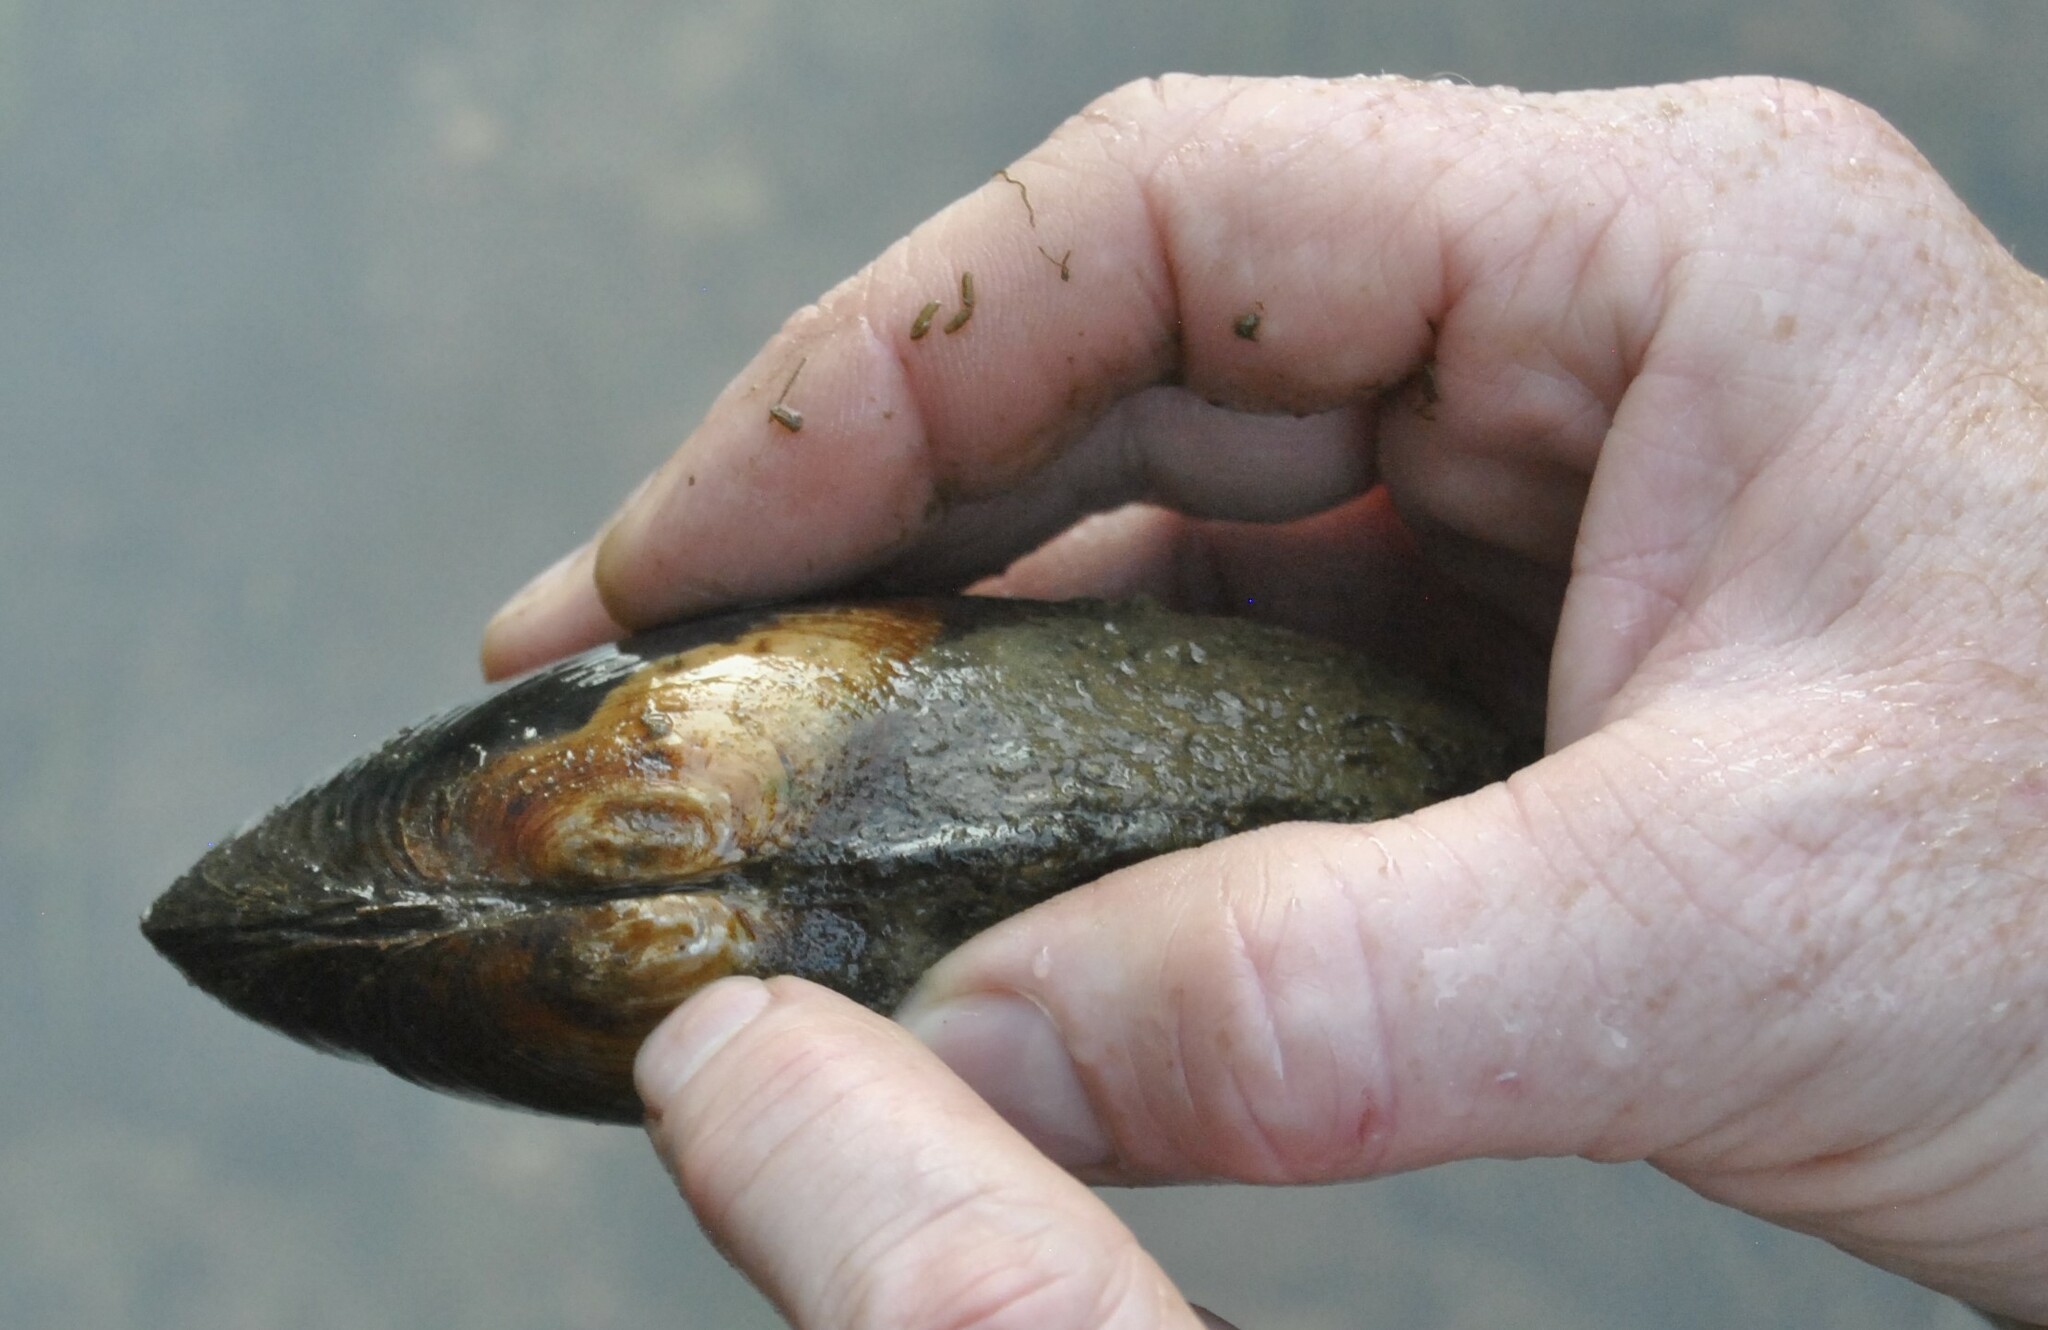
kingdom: Animalia
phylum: Mollusca
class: Bivalvia
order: Unionida
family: Unionidae
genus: Lasmigona
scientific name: Lasmigona costata
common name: Flutedshell
